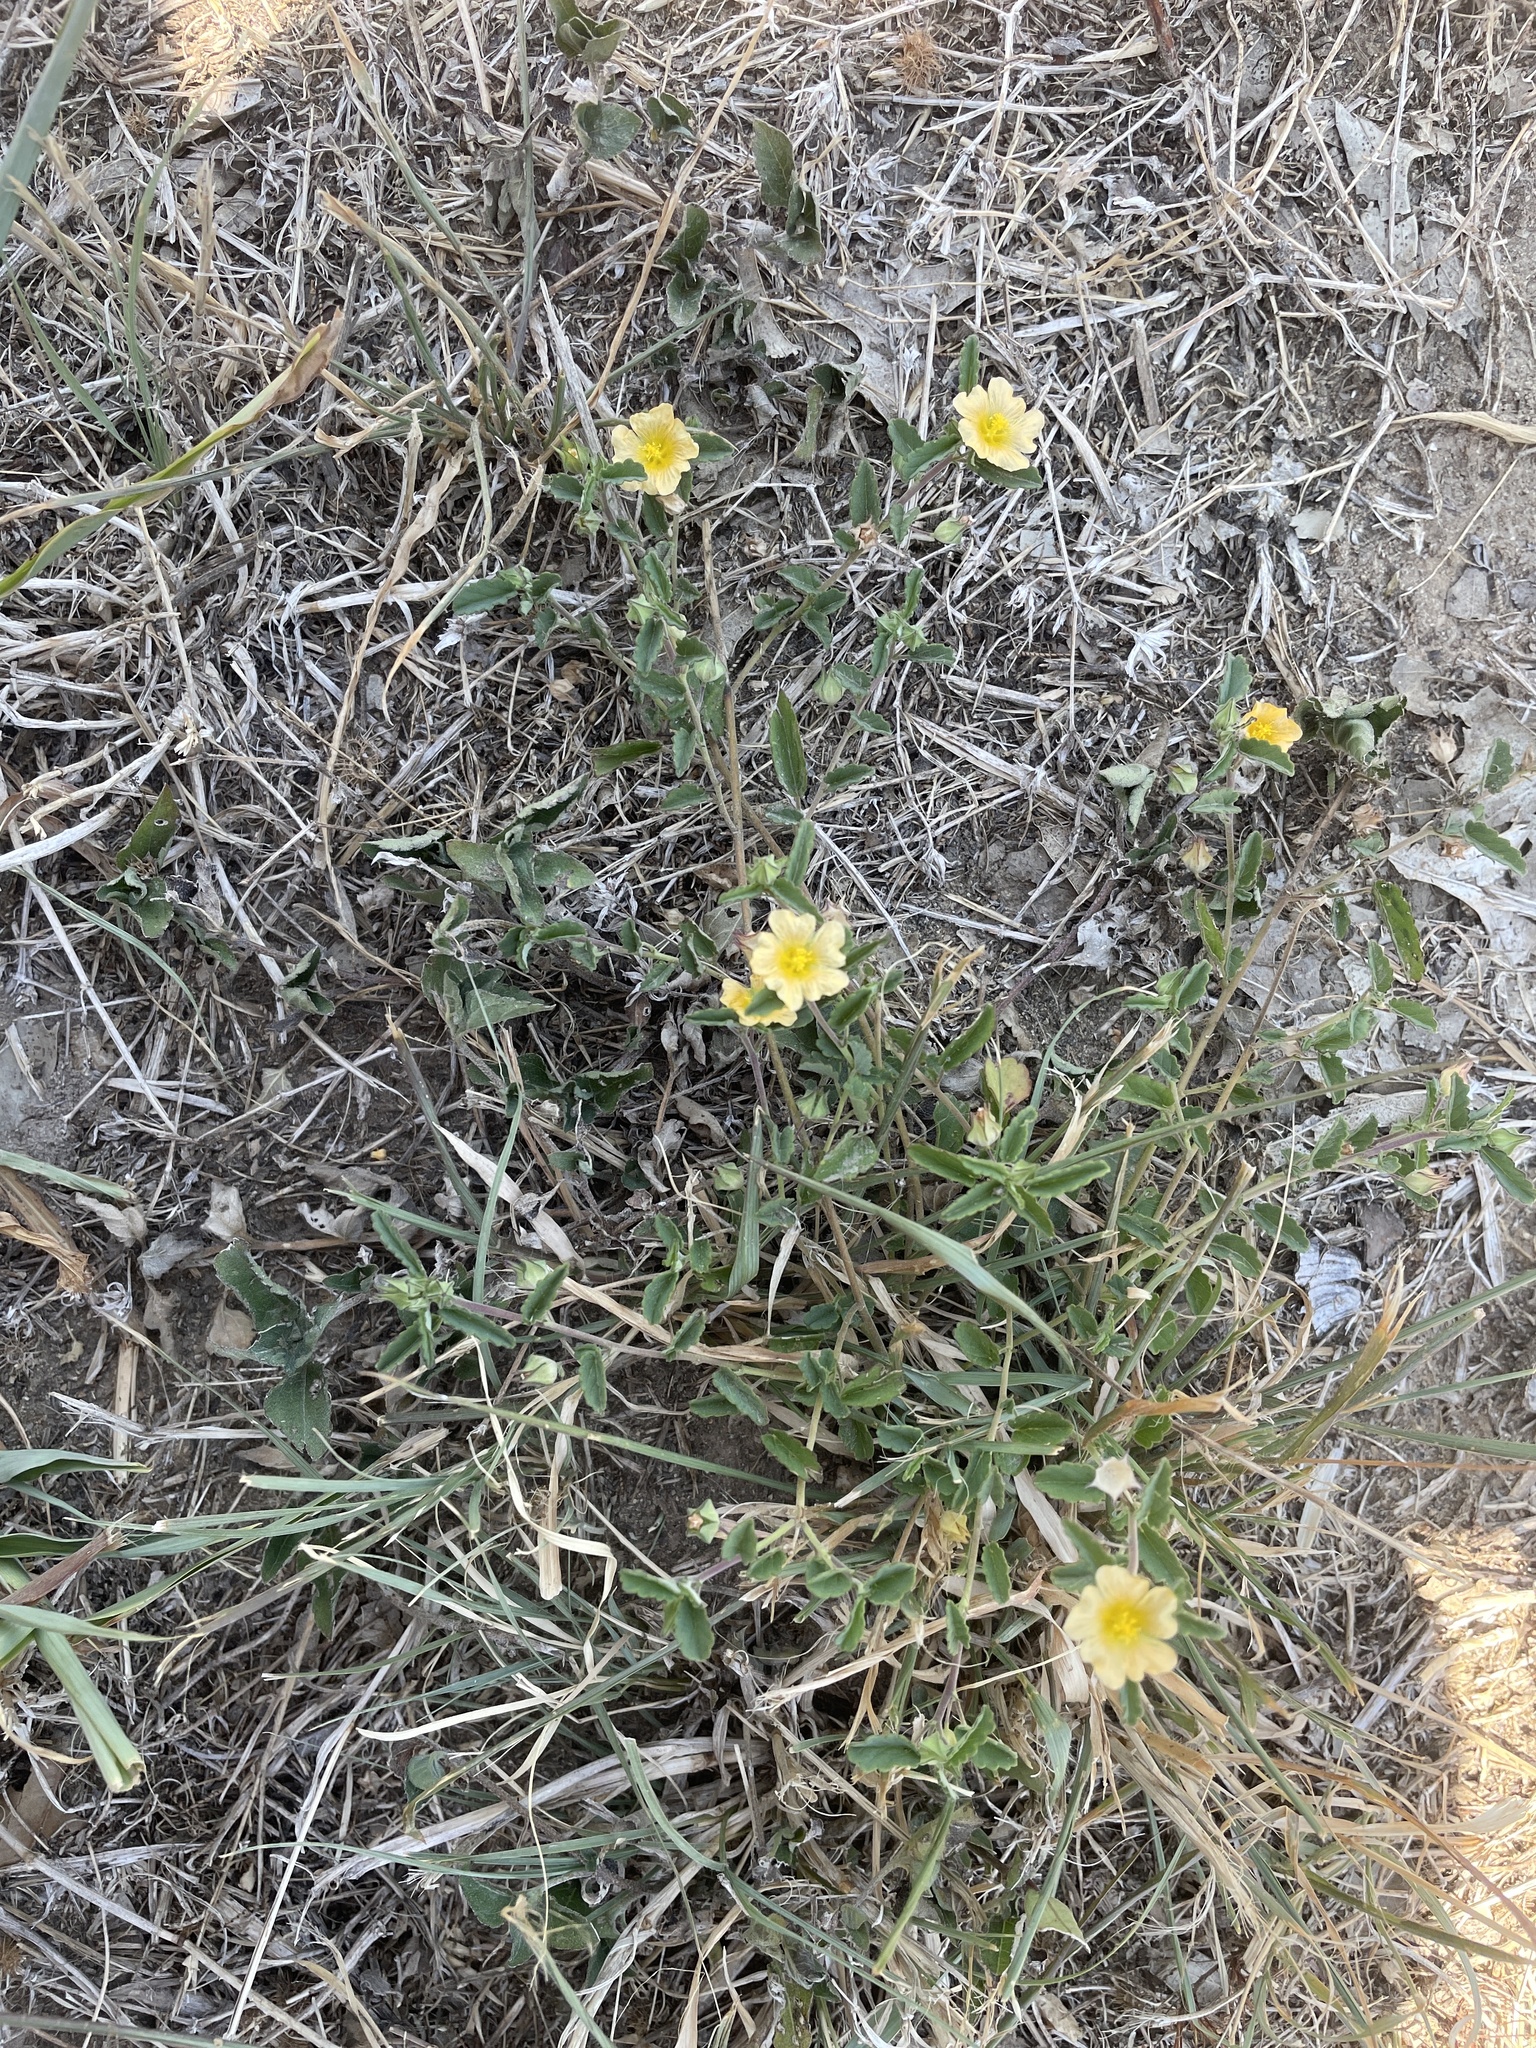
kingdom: Plantae
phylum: Tracheophyta
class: Magnoliopsida
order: Malvales
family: Malvaceae
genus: Sida
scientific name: Sida abutilifolia
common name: Spreading fanpetals
